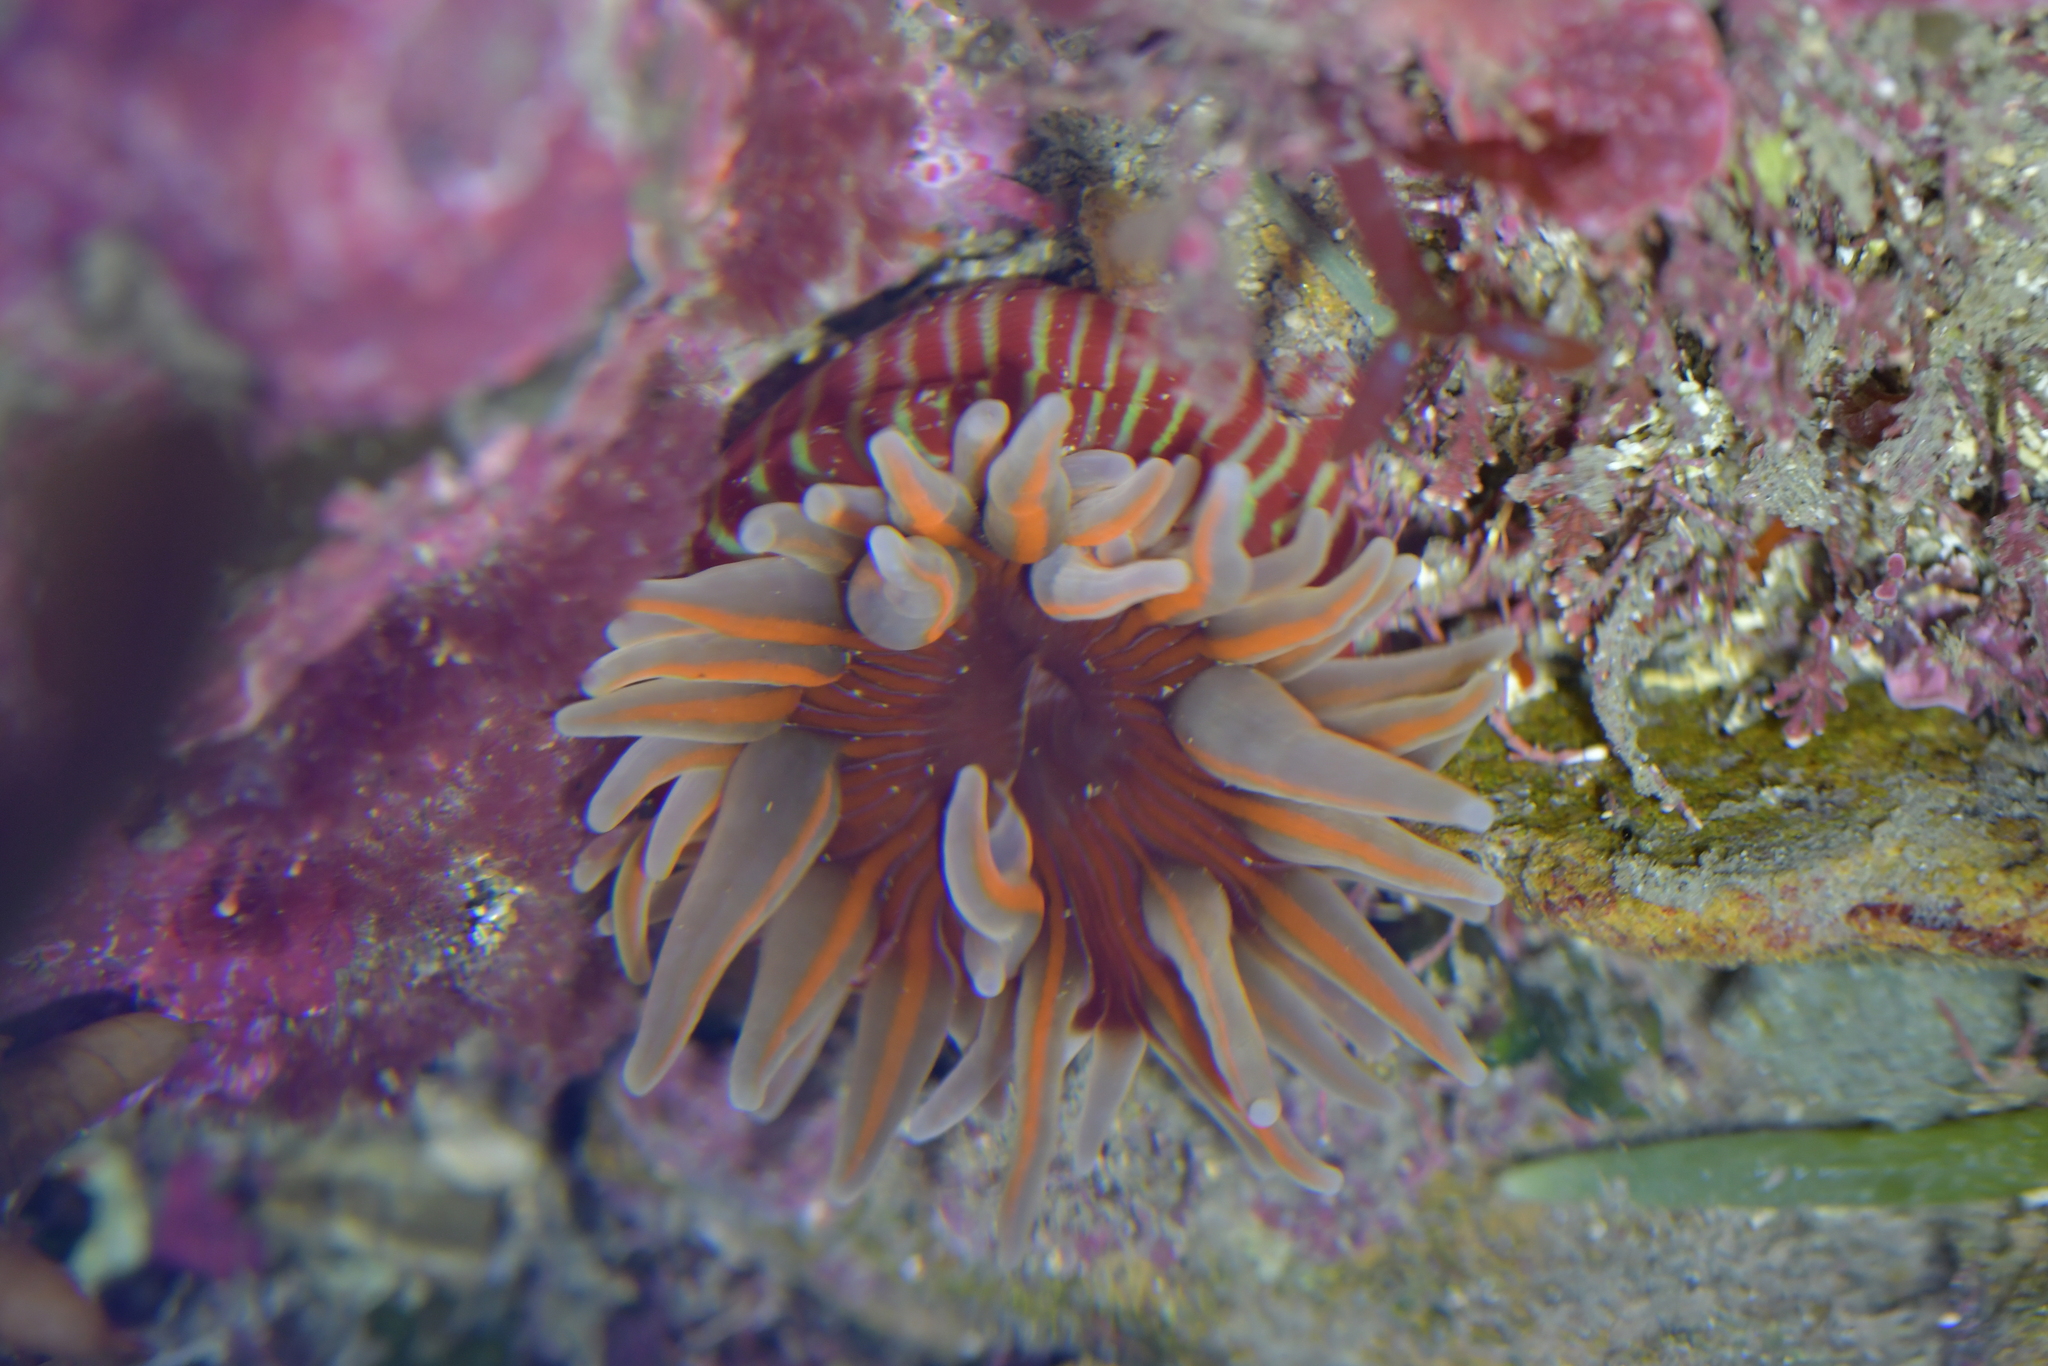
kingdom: Animalia
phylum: Cnidaria
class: Anthozoa
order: Actiniaria
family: Actiniidae
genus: Epiactis
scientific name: Epiactis thompsoni
